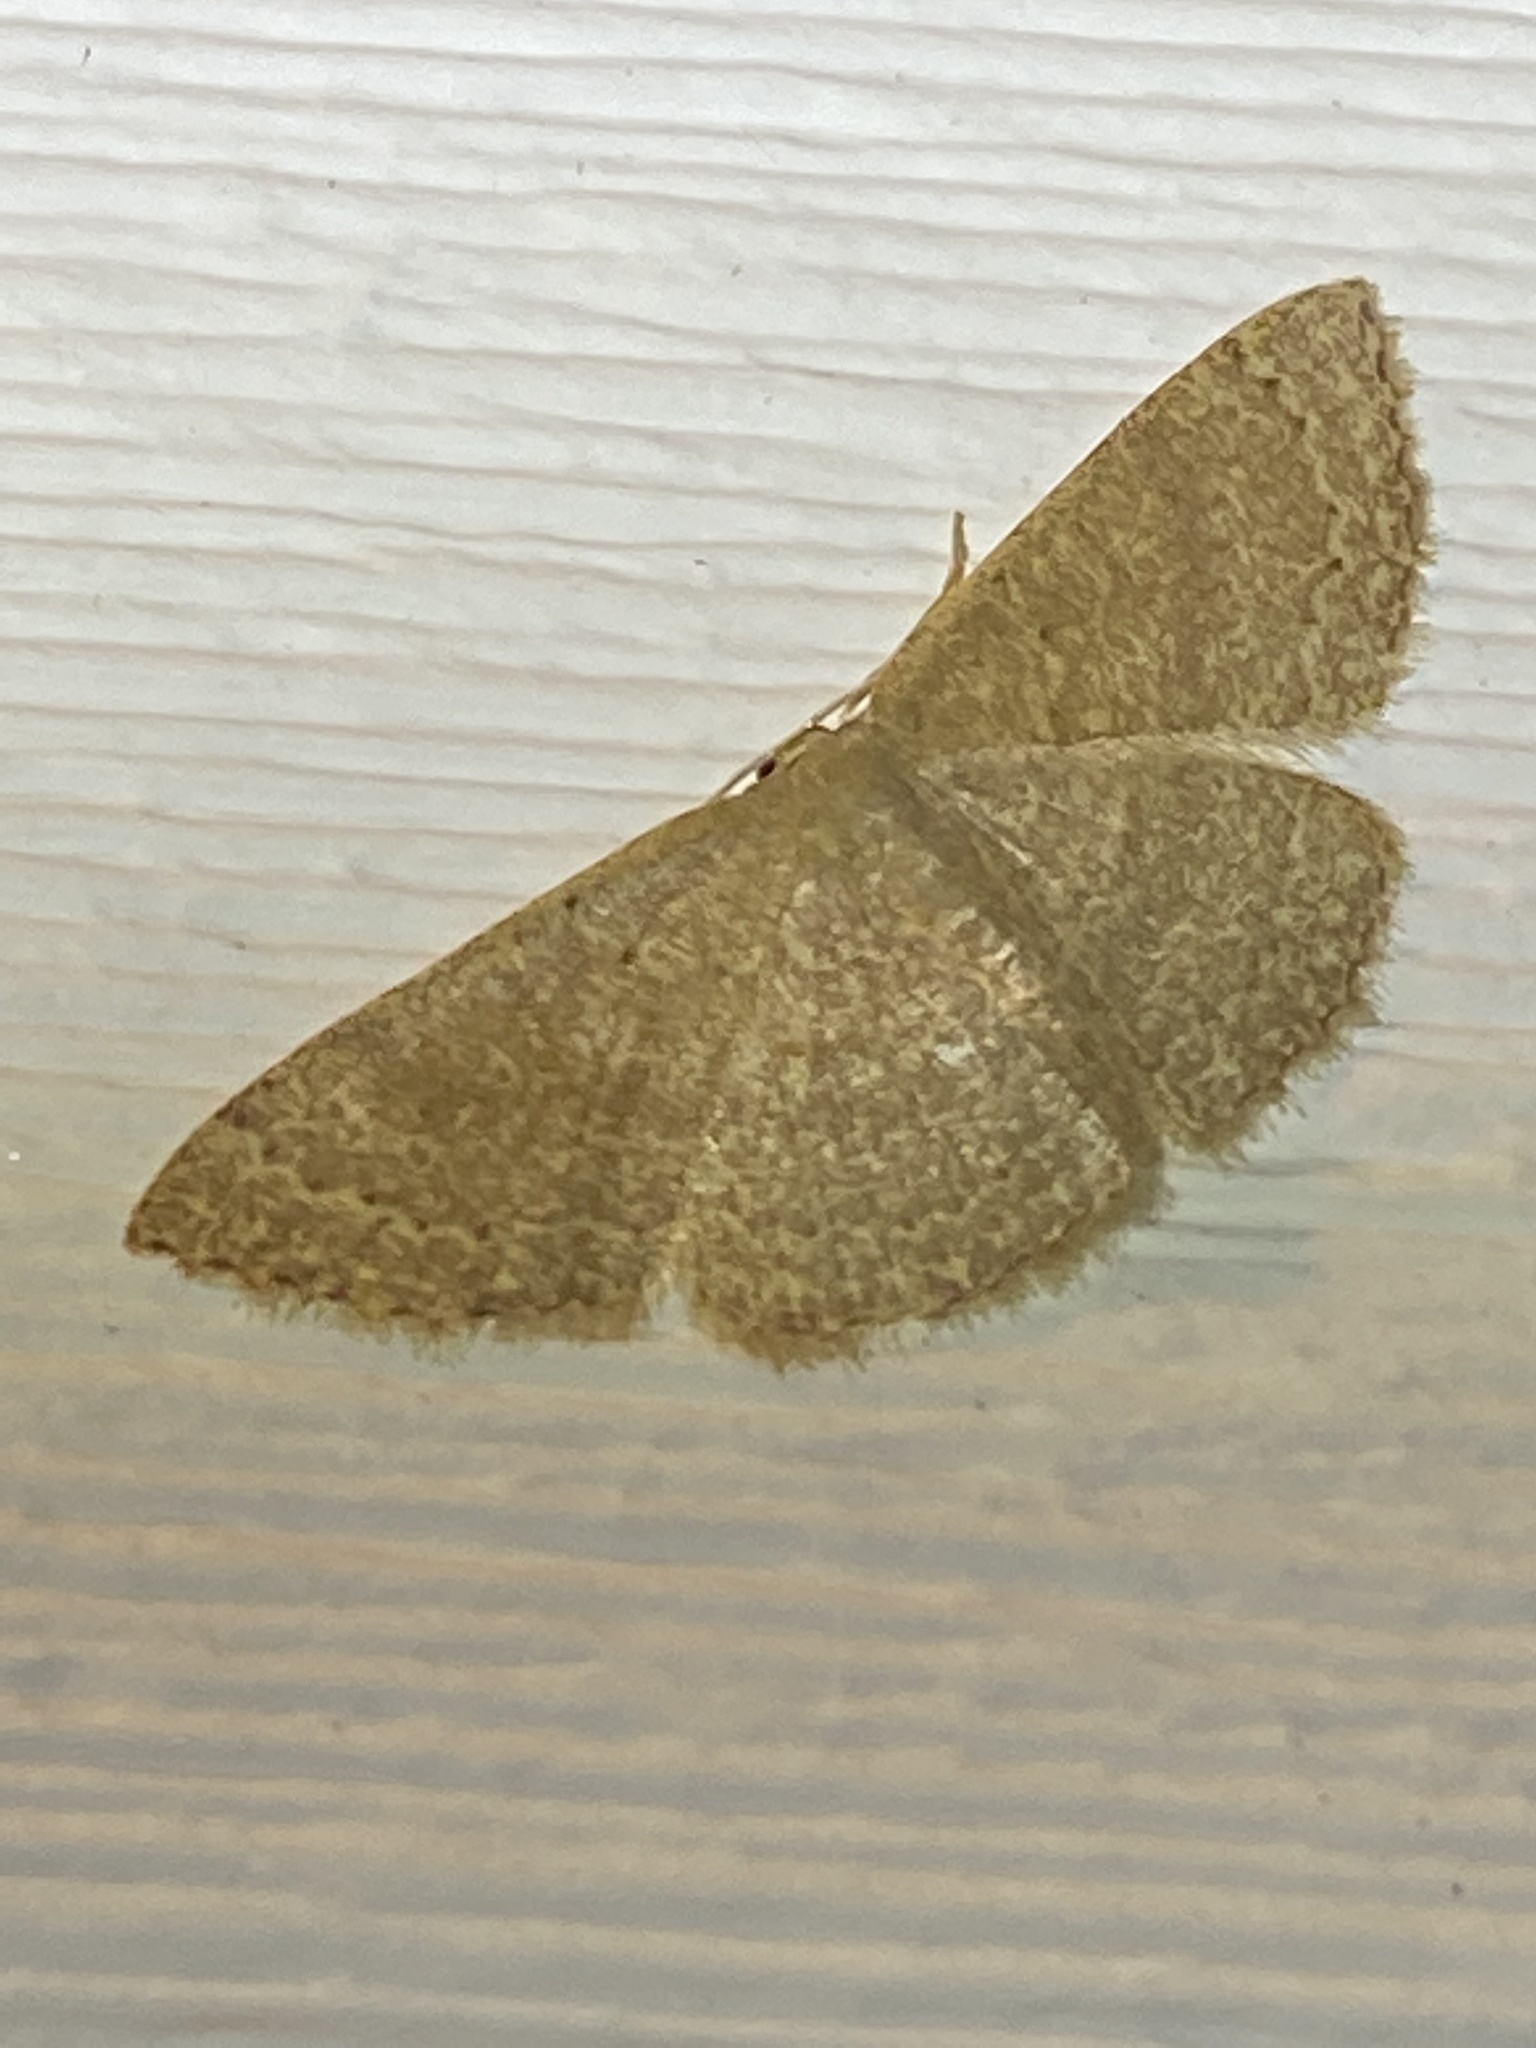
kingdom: Animalia
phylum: Arthropoda
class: Insecta
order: Lepidoptera
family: Geometridae
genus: Pleuroprucha
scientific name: Pleuroprucha insulsaria
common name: Common tan wave
